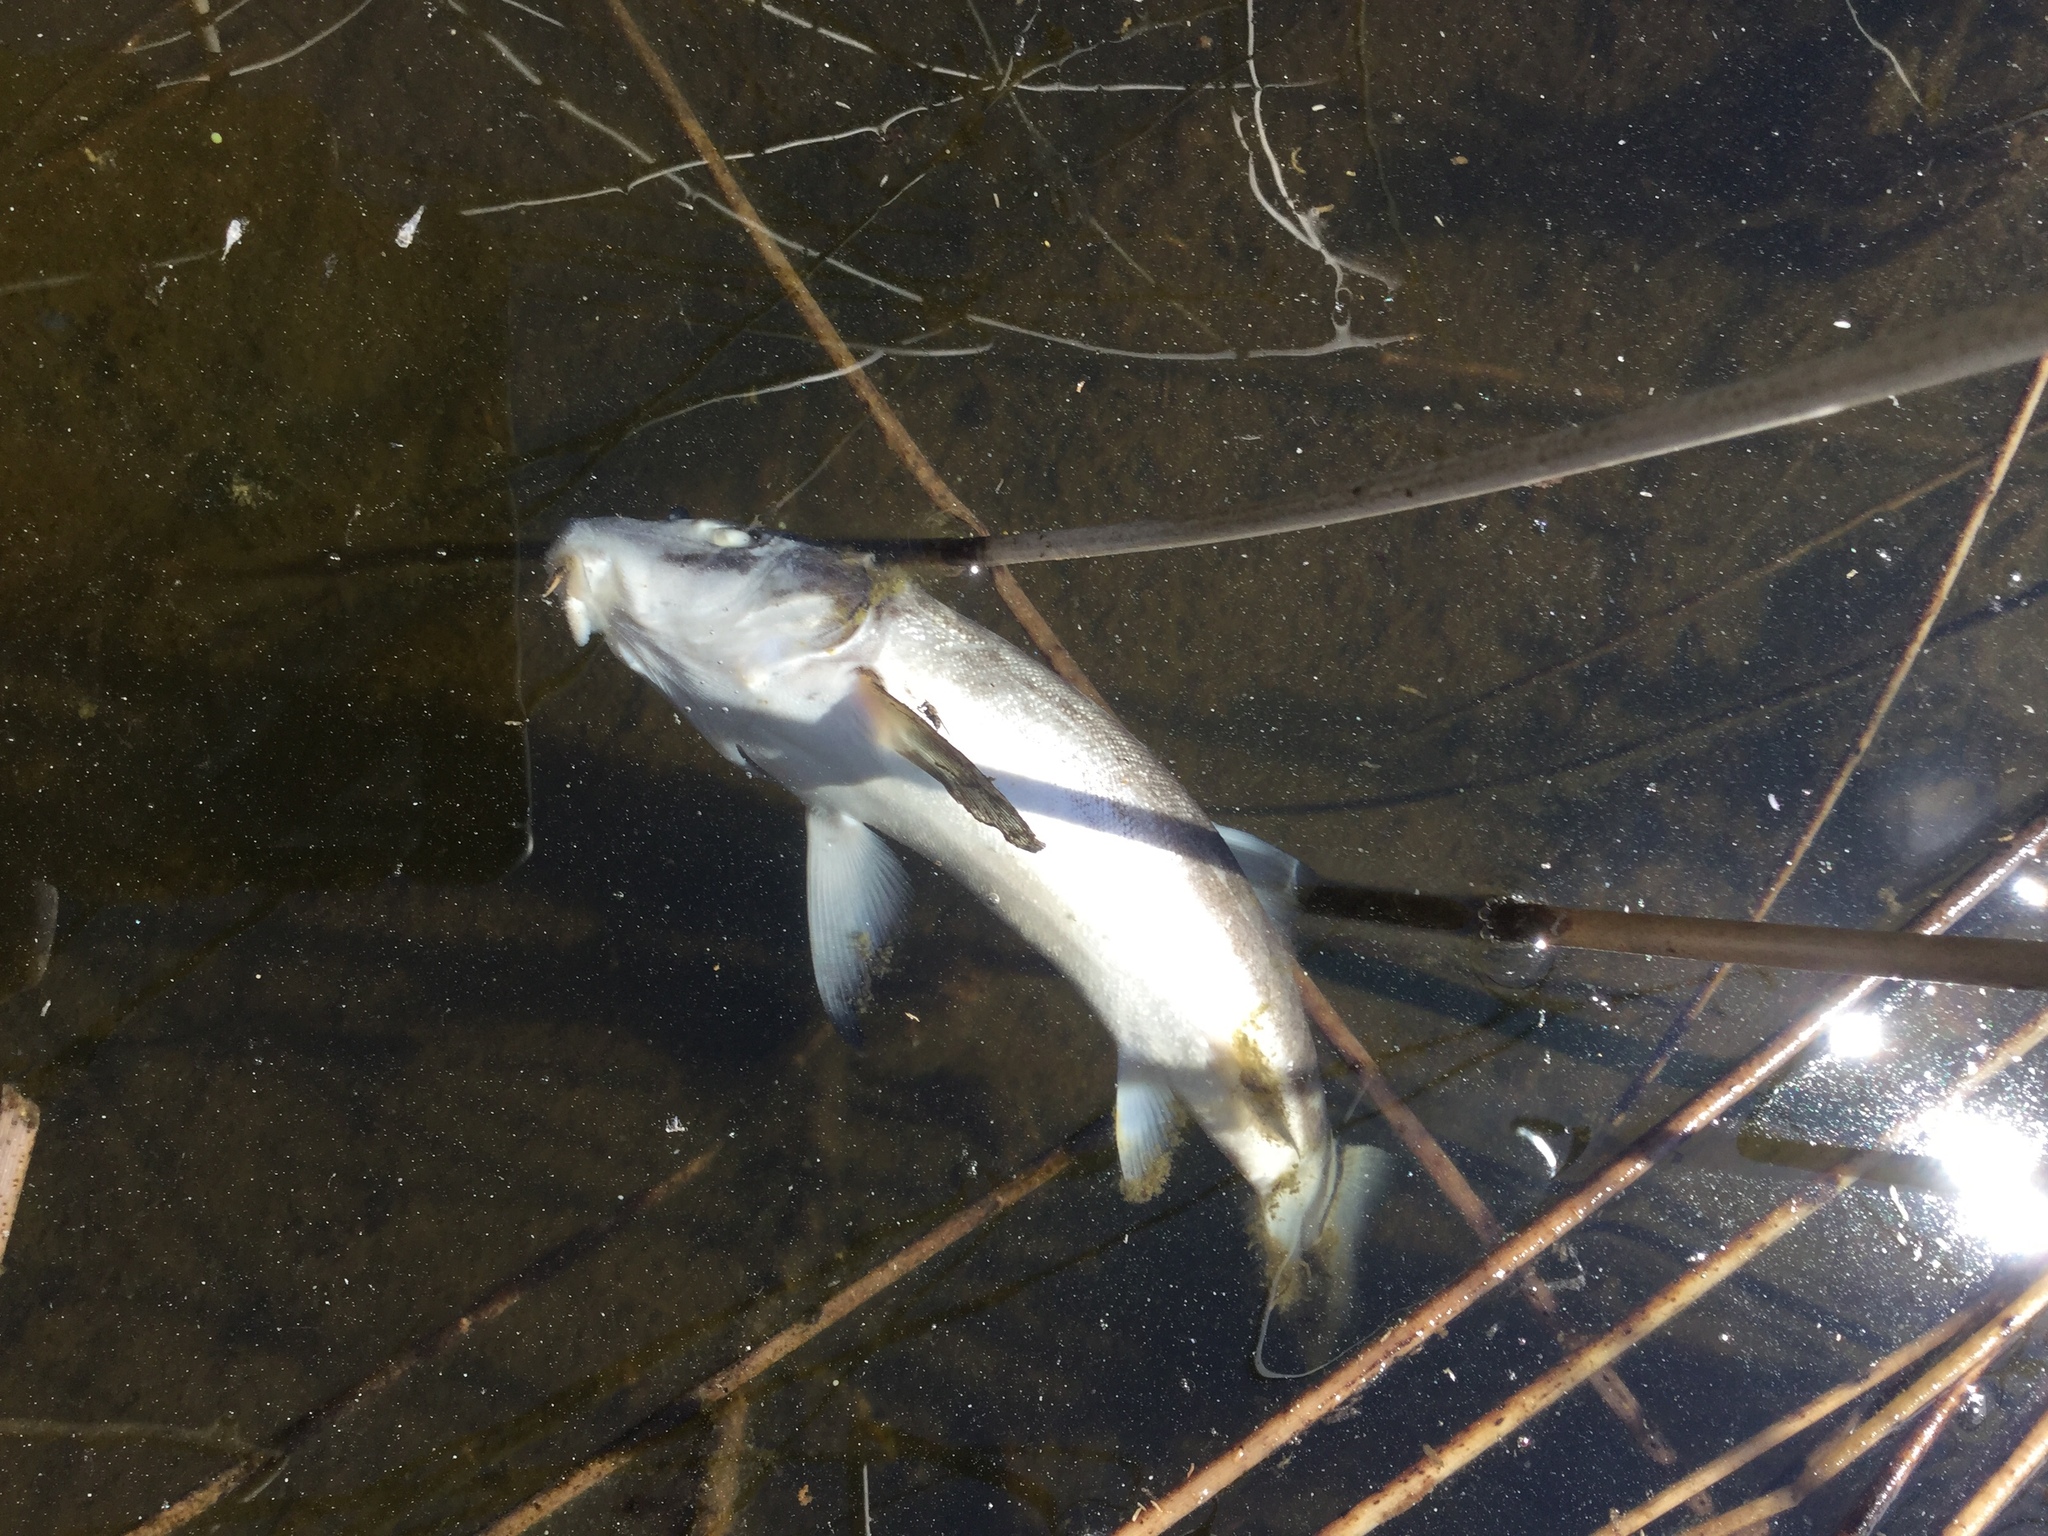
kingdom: Animalia
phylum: Chordata
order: Cypriniformes
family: Catostomidae
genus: Catostomus
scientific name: Catostomus catostomus
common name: Longnose sucker
